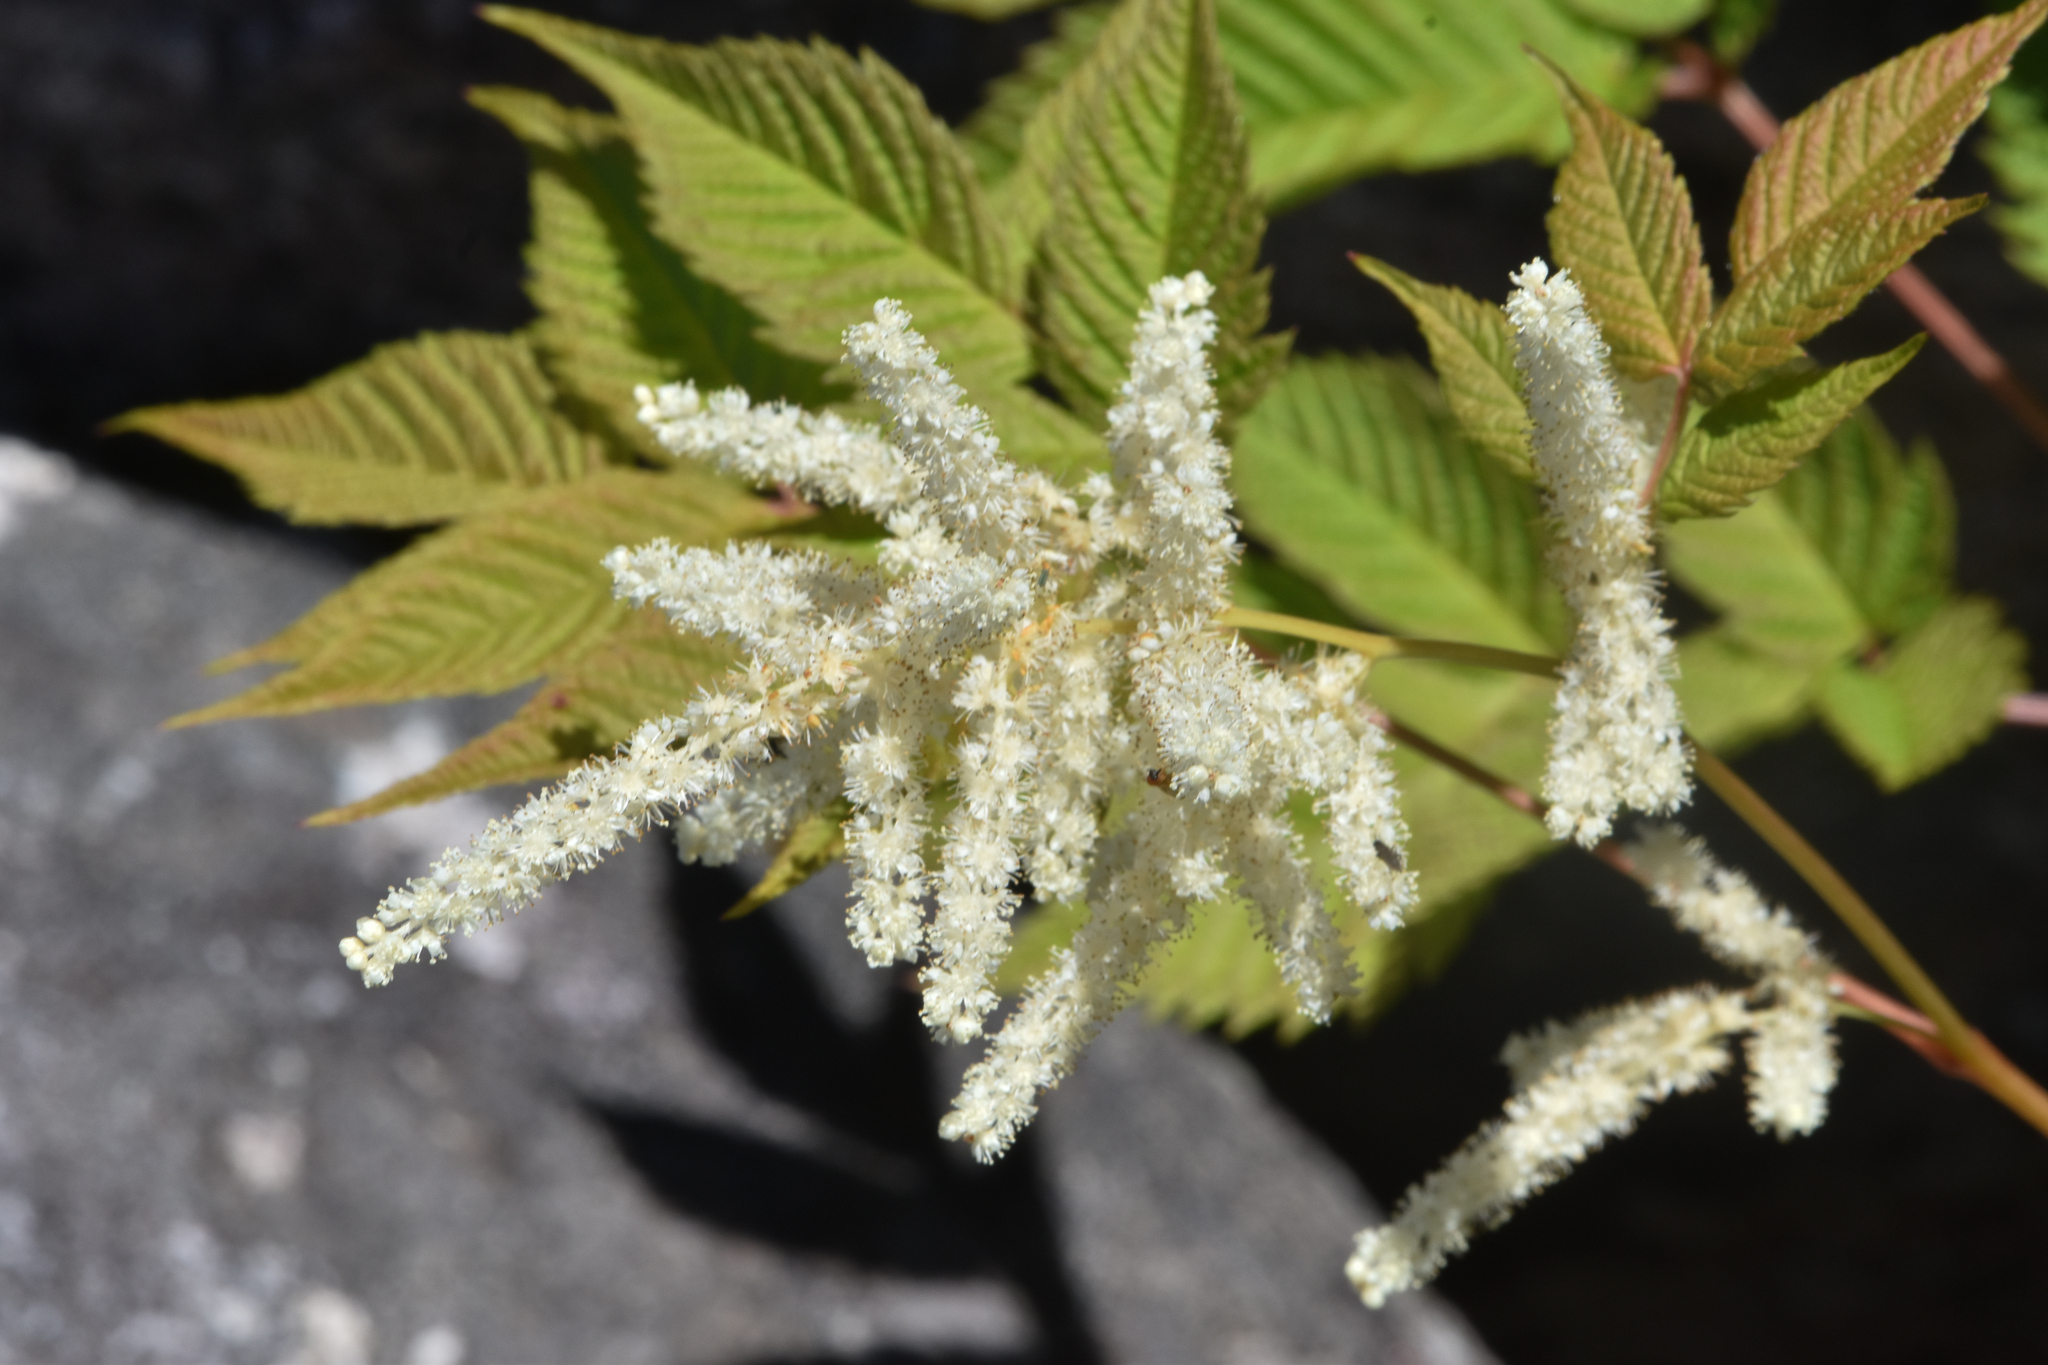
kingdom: Plantae
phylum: Tracheophyta
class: Magnoliopsida
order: Rosales
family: Rosaceae
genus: Aruncus
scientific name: Aruncus dioicus
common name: Buck's-beard
